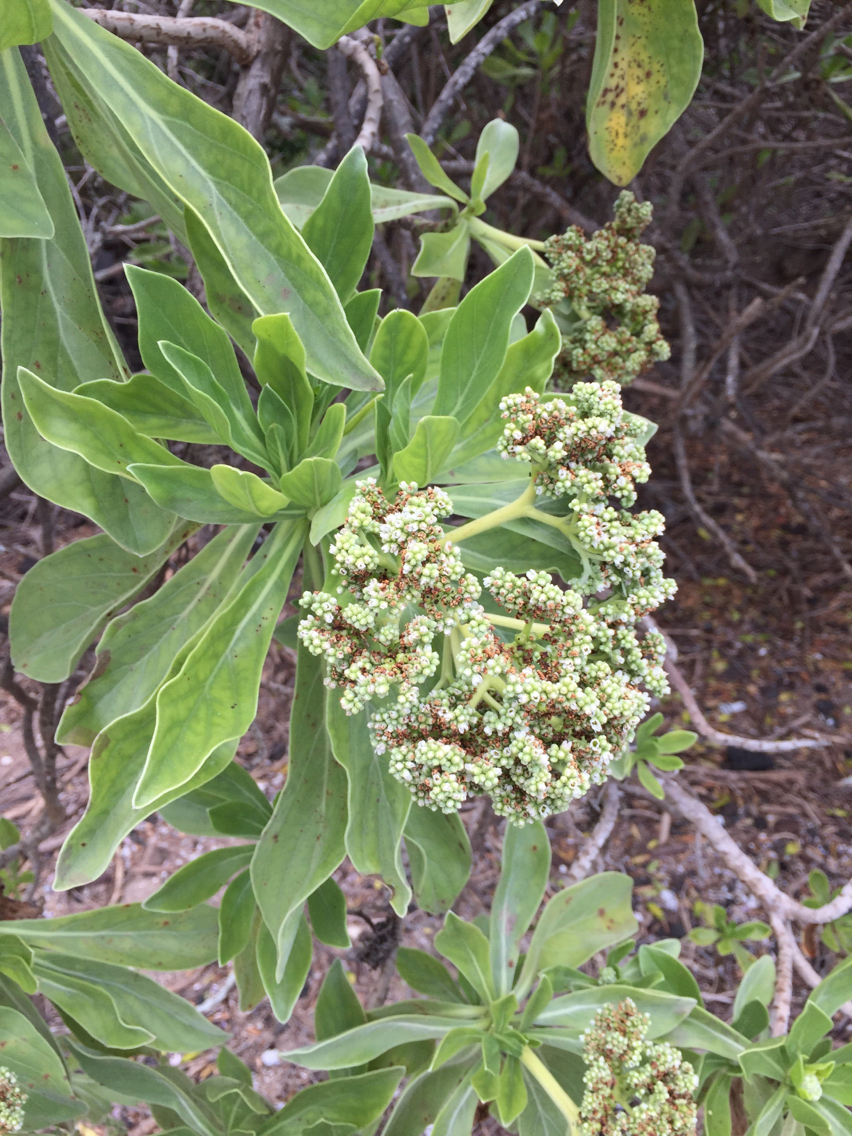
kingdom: Plantae
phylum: Tracheophyta
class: Magnoliopsida
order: Boraginales
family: Heliotropiaceae
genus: Heliotropium
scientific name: Heliotropium velutinum
